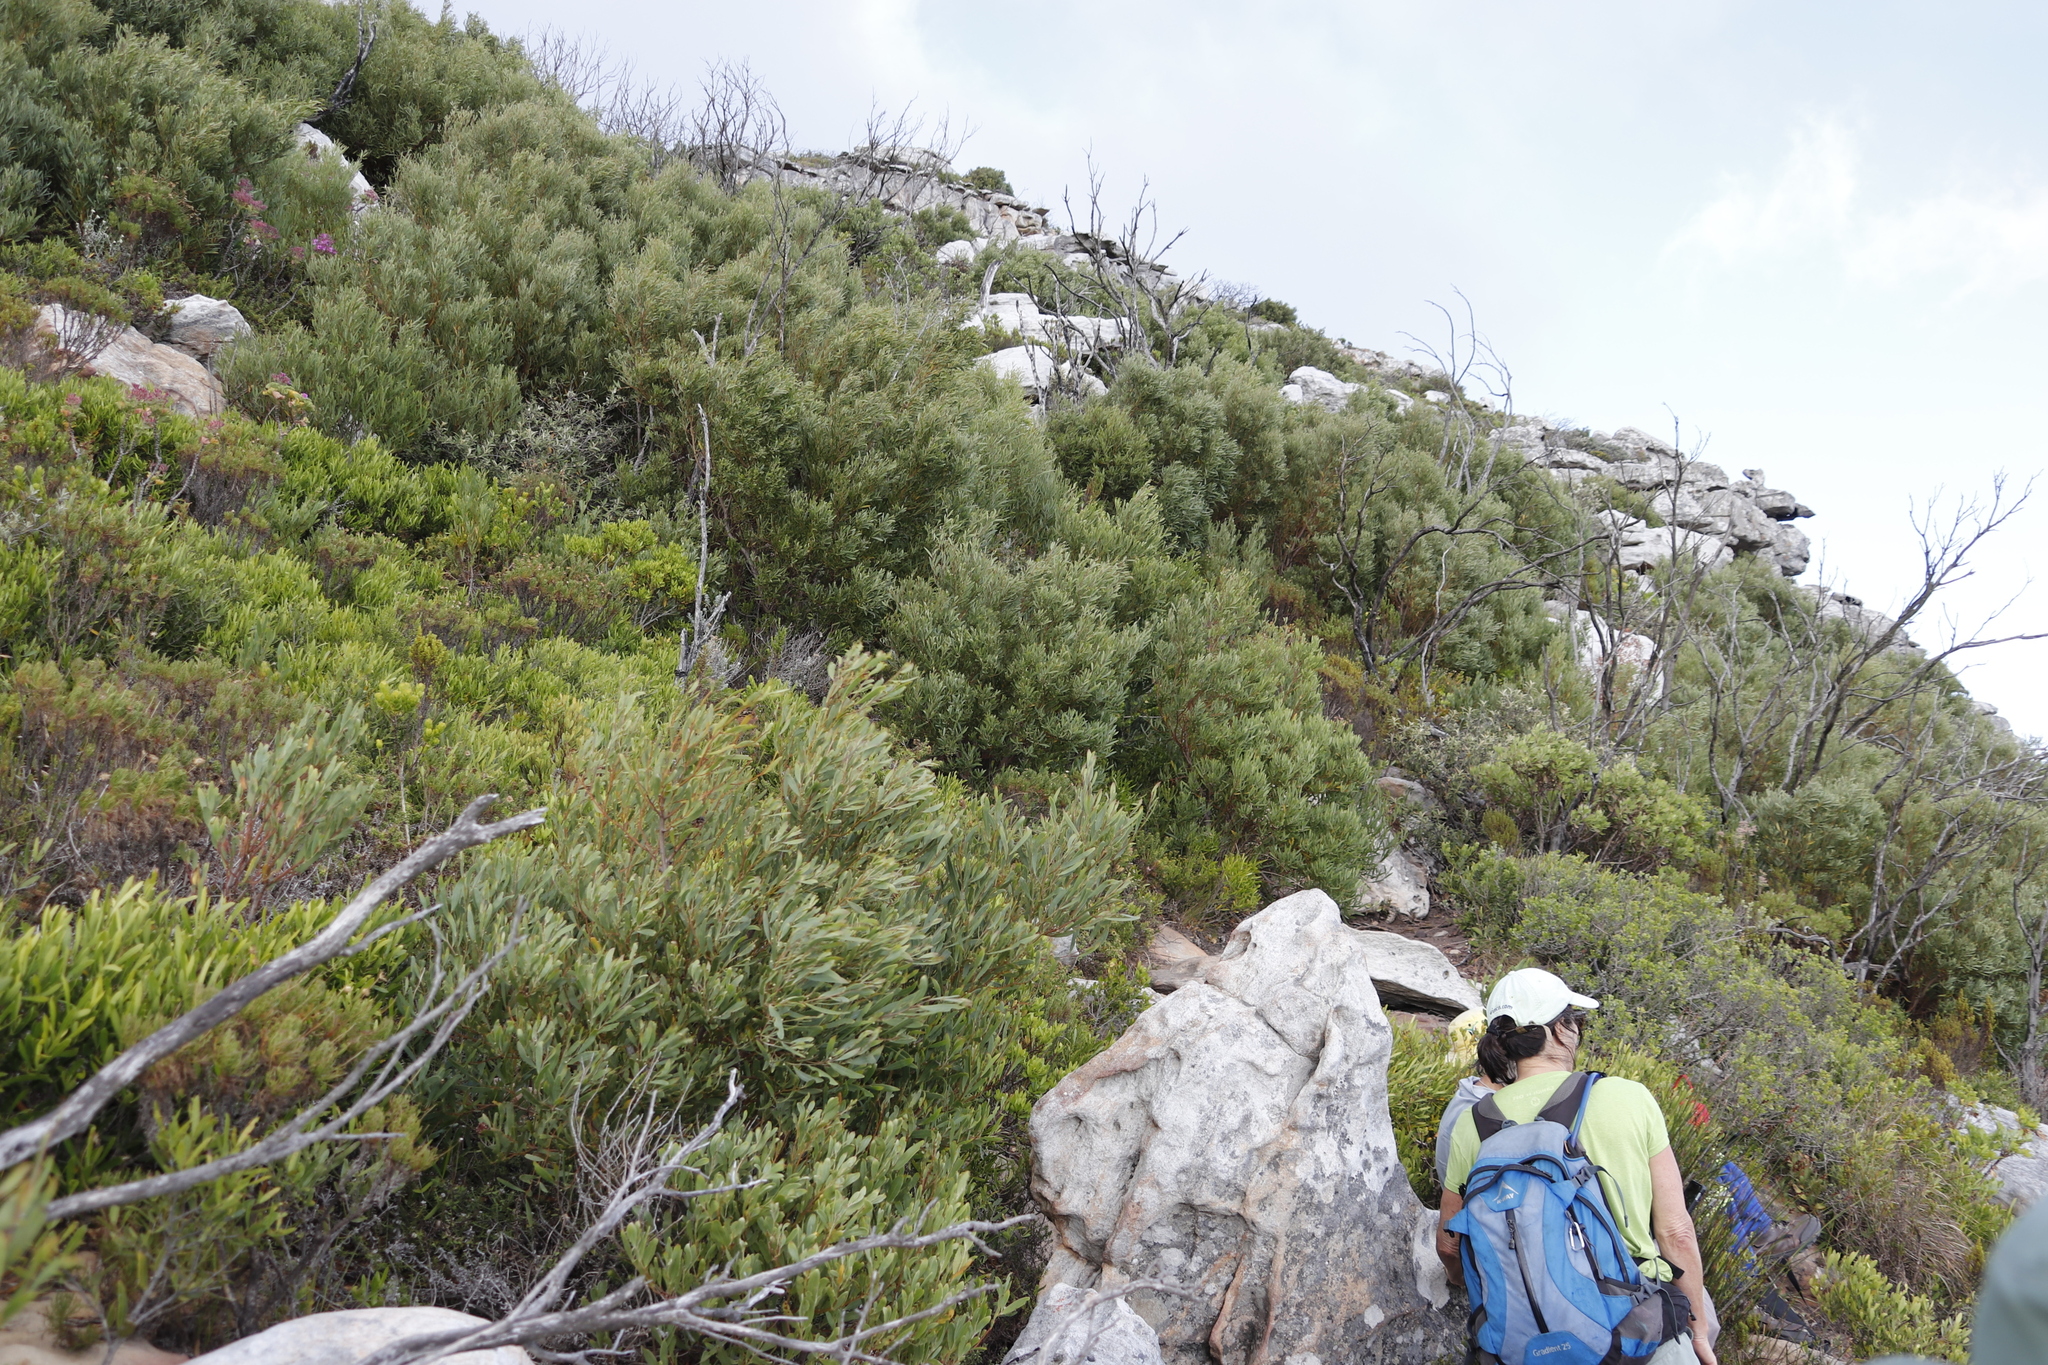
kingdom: Plantae
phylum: Tracheophyta
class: Magnoliopsida
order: Fabales
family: Fabaceae
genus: Acacia
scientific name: Acacia cyclops
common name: Coastal wattle
